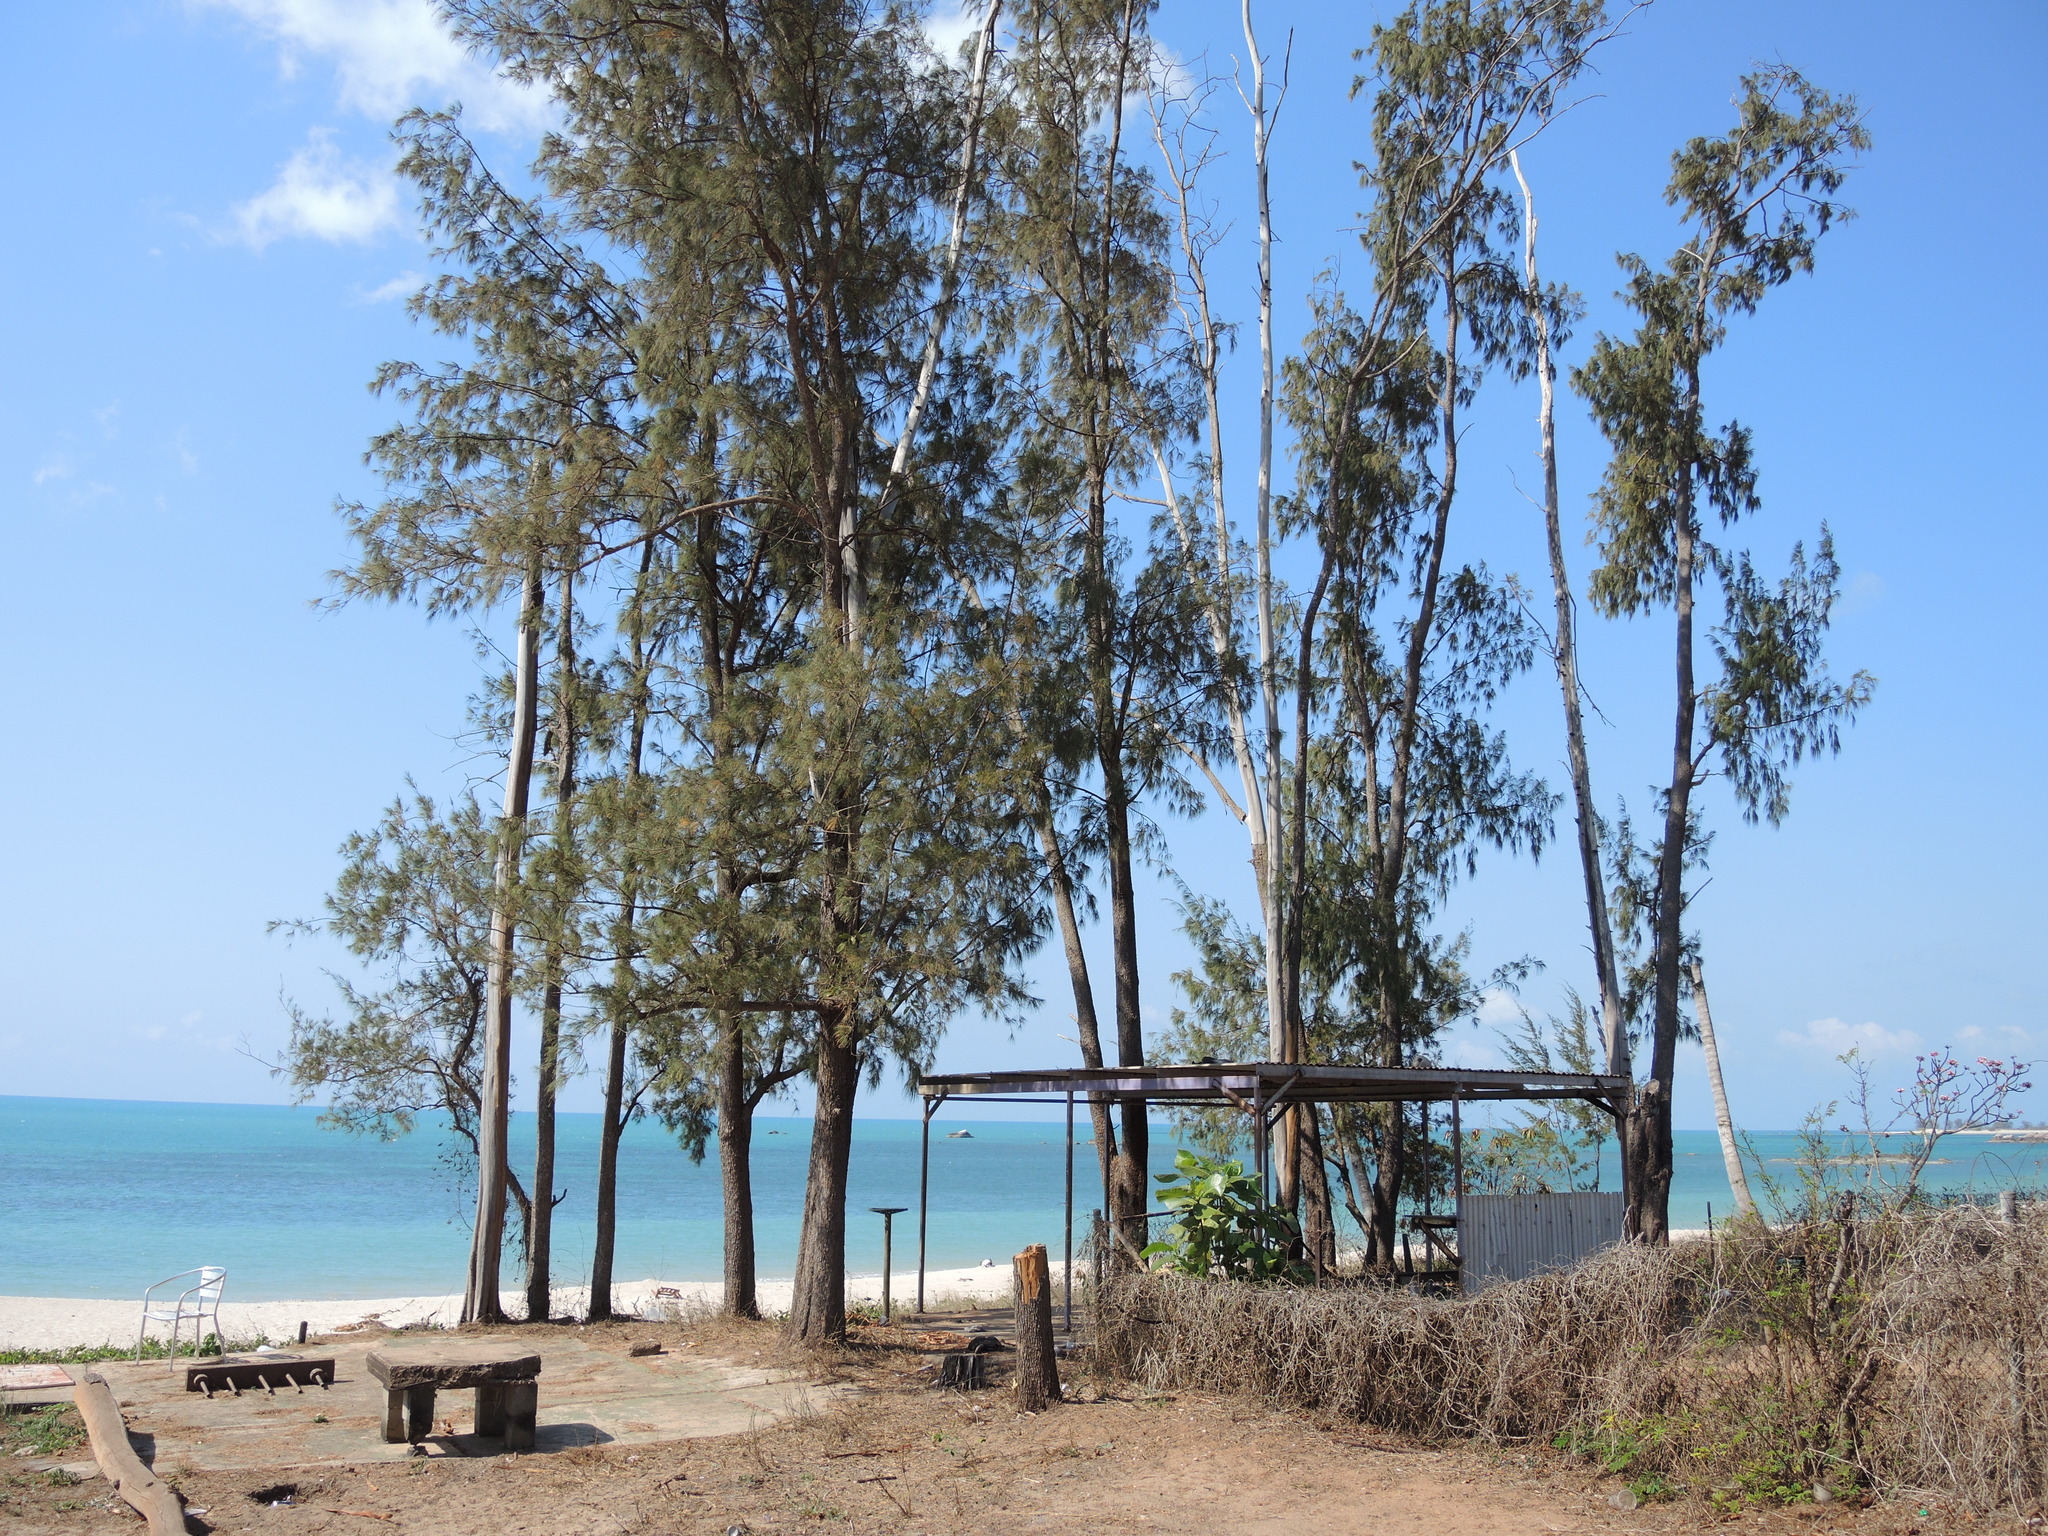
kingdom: Plantae
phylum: Tracheophyta
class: Magnoliopsida
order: Fagales
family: Casuarinaceae
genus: Casuarina
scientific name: Casuarina equisetifolia
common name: Beach sheoak
